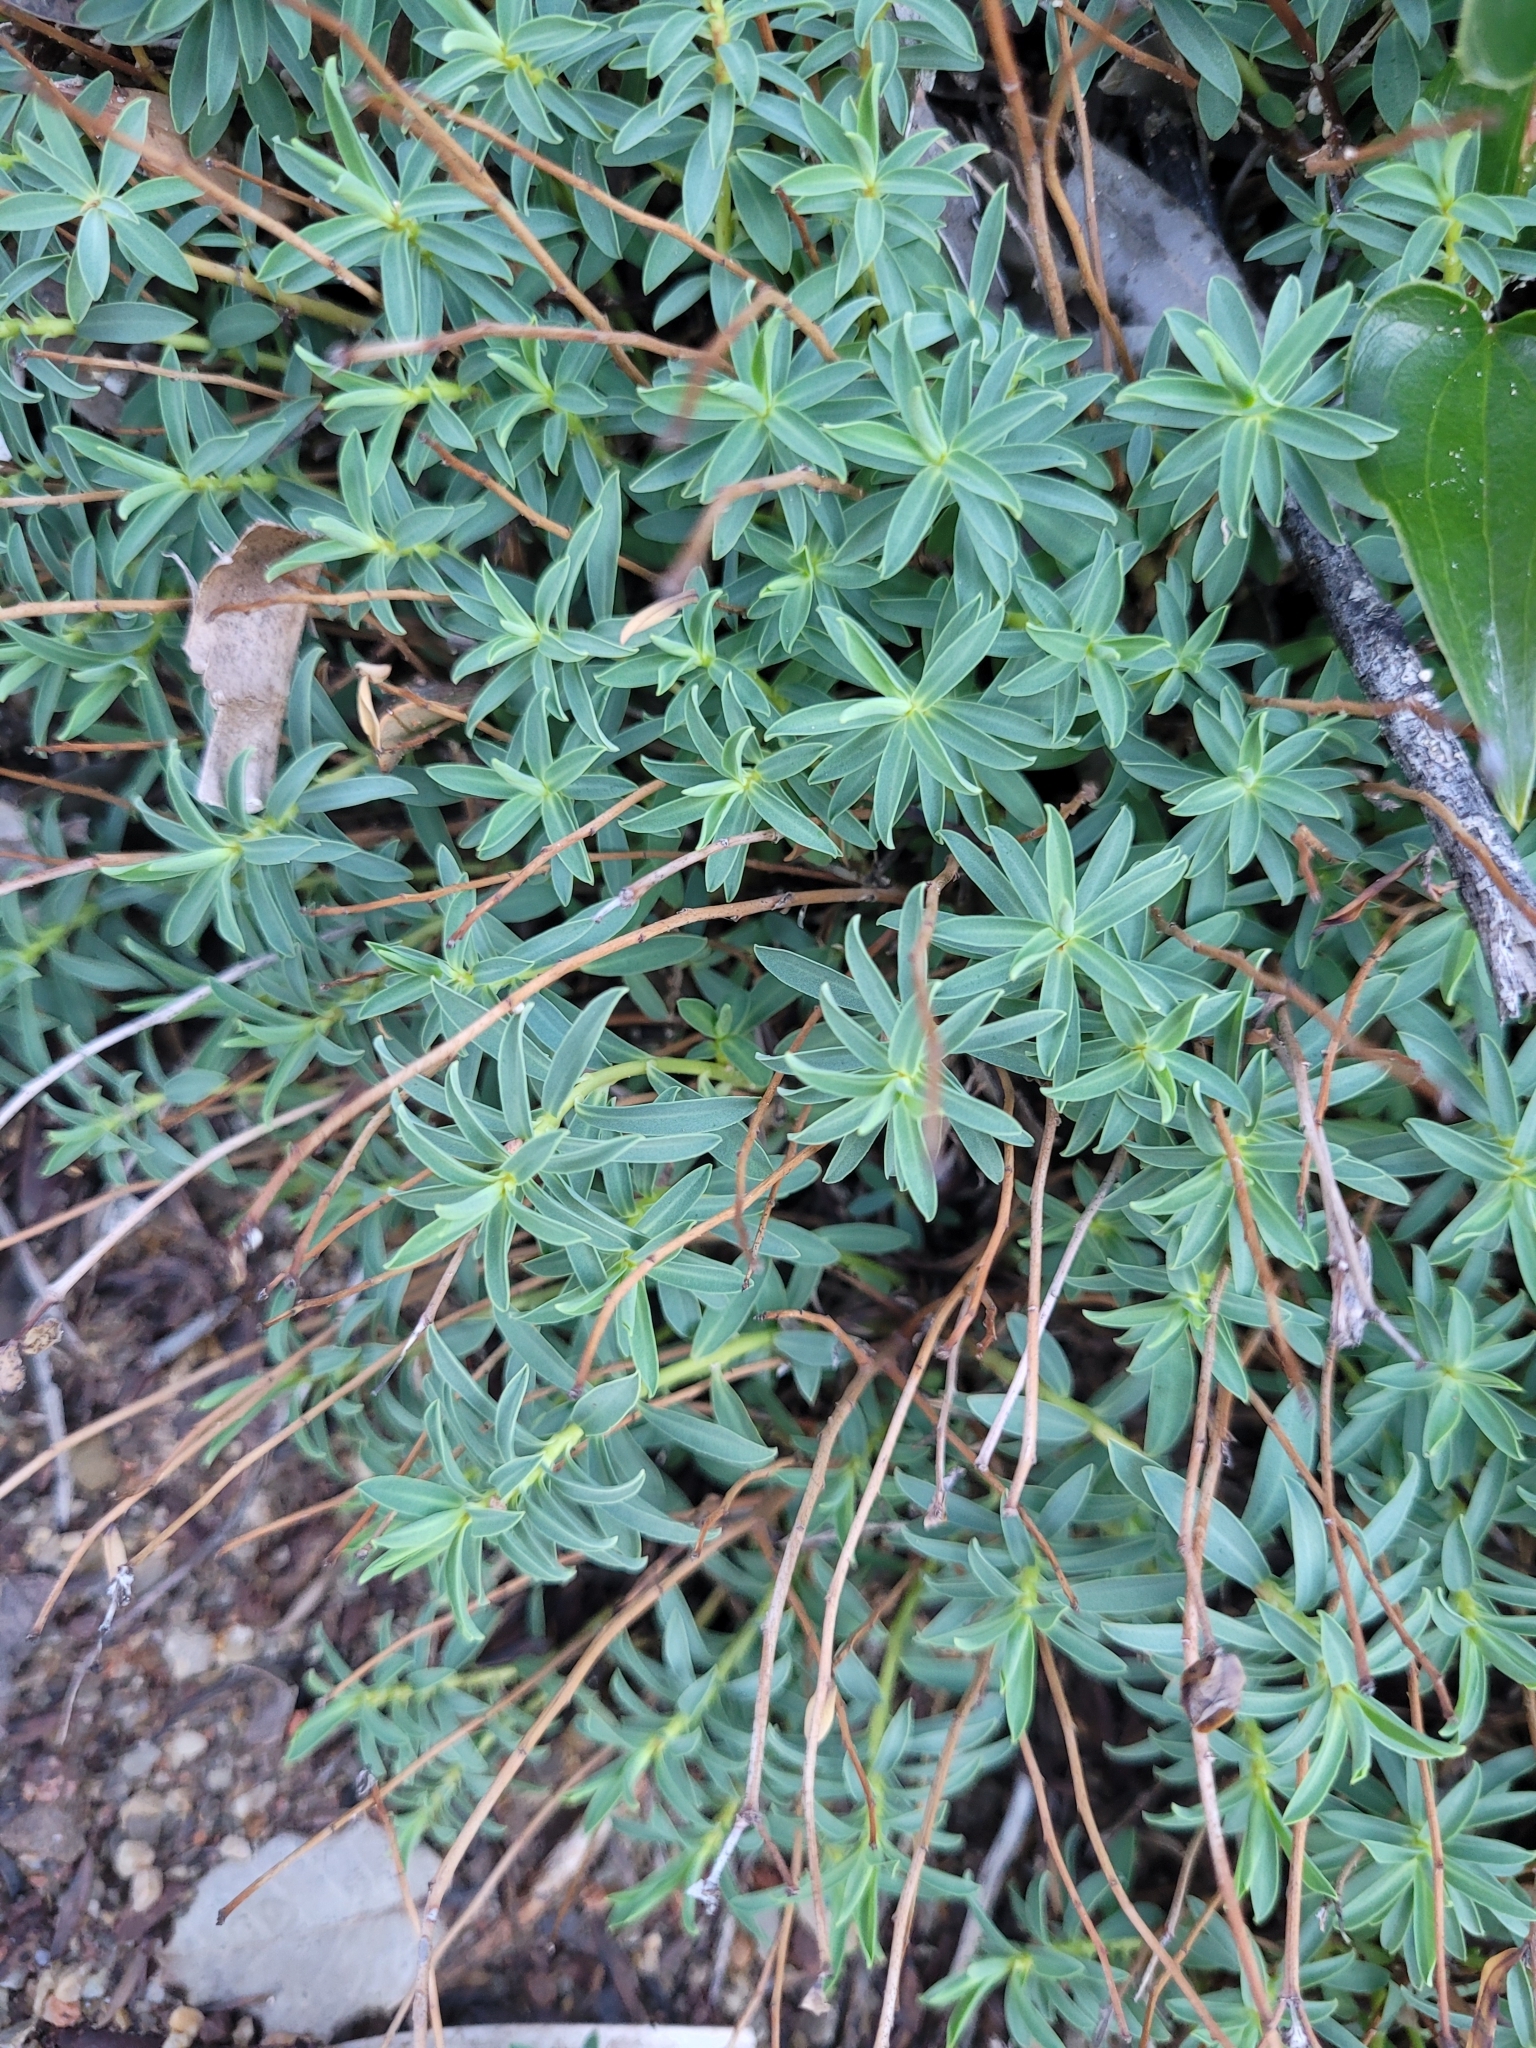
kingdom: Plantae
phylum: Tracheophyta
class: Magnoliopsida
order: Malpighiales
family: Euphorbiaceae
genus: Euphorbia
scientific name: Euphorbia spinosa
